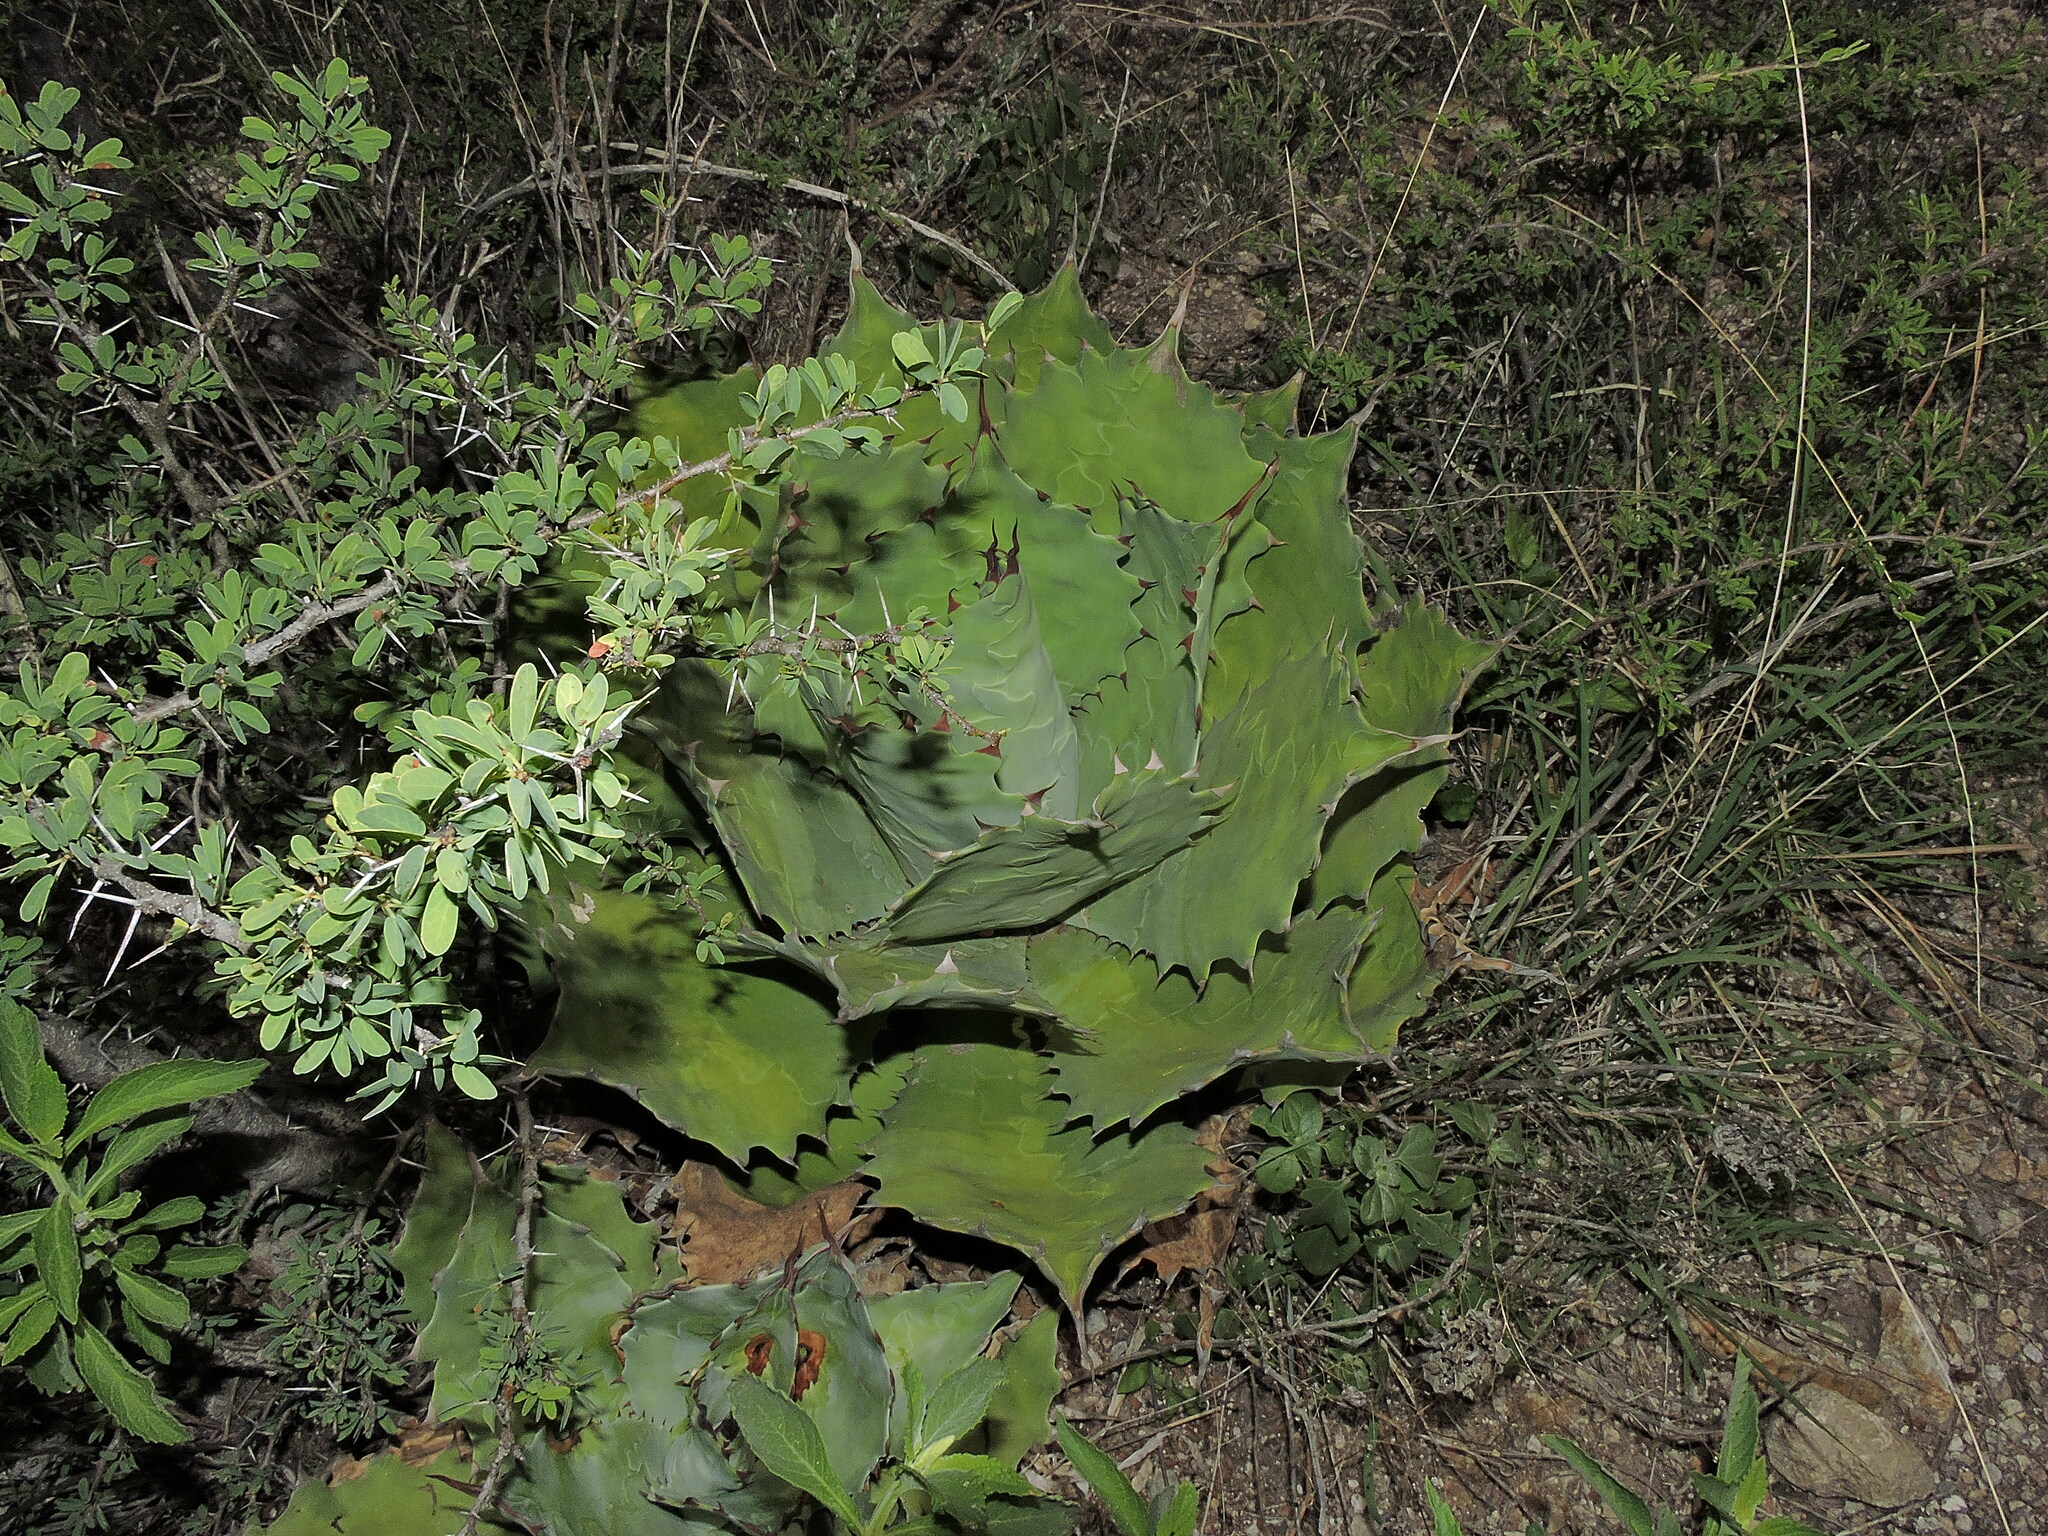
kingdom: Plantae
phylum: Tracheophyta
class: Liliopsida
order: Asparagales
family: Asparagaceae
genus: Agave
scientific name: Agave cupreata
